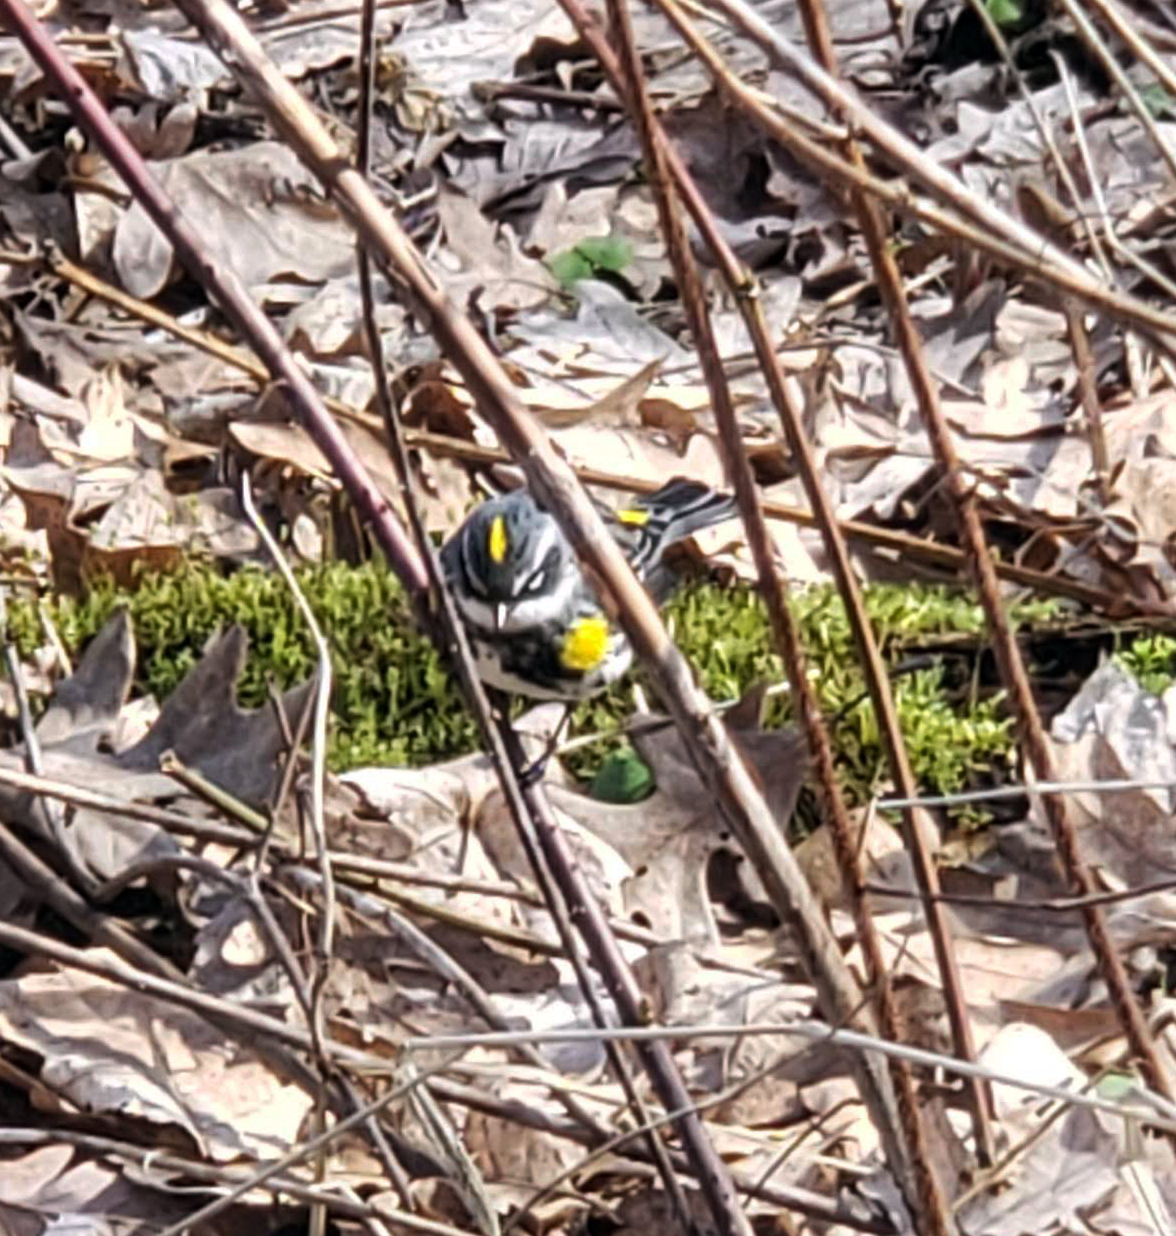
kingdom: Animalia
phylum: Chordata
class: Aves
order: Passeriformes
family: Parulidae
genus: Setophaga
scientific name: Setophaga coronata
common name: Myrtle warbler
